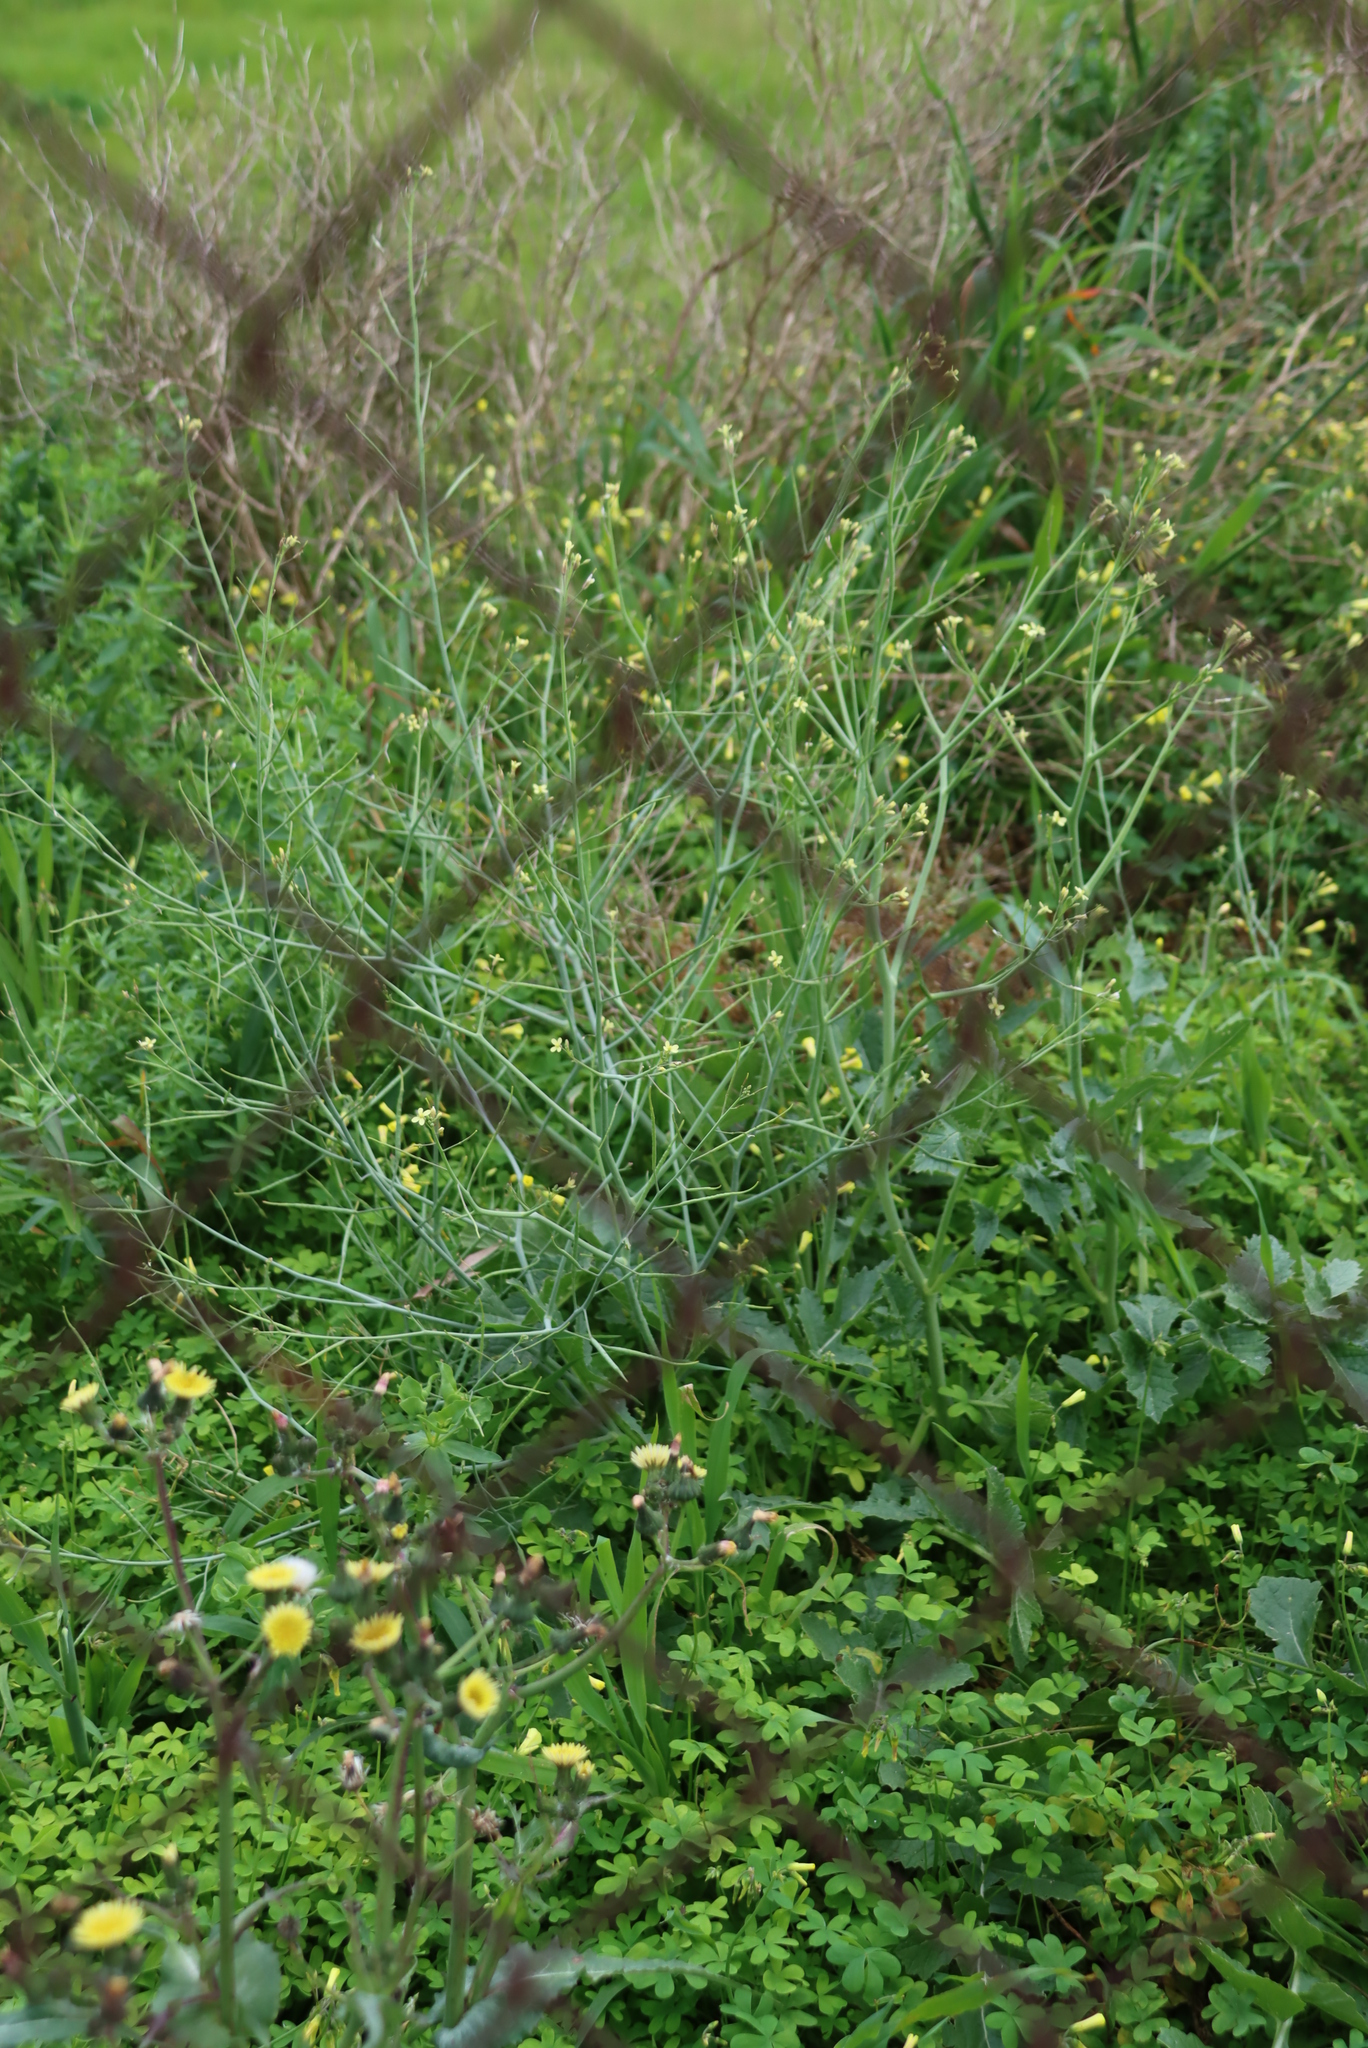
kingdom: Plantae
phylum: Tracheophyta
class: Magnoliopsida
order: Brassicales
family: Brassicaceae
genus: Brassica
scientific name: Brassica tournefortii
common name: Pale cabbage
